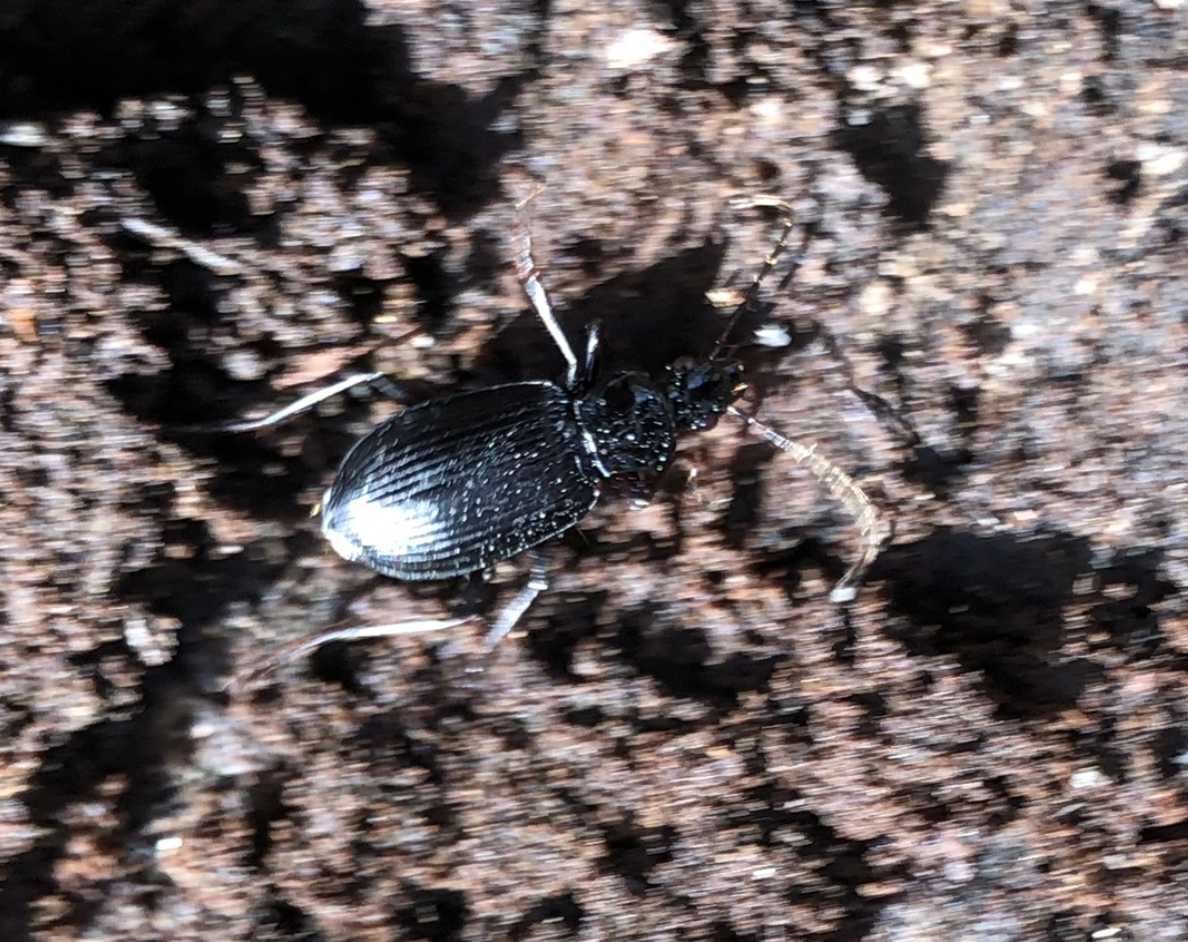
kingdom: Animalia
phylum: Arthropoda
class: Insecta
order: Coleoptera
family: Carabidae
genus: Platynus
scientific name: Platynus assimilis
